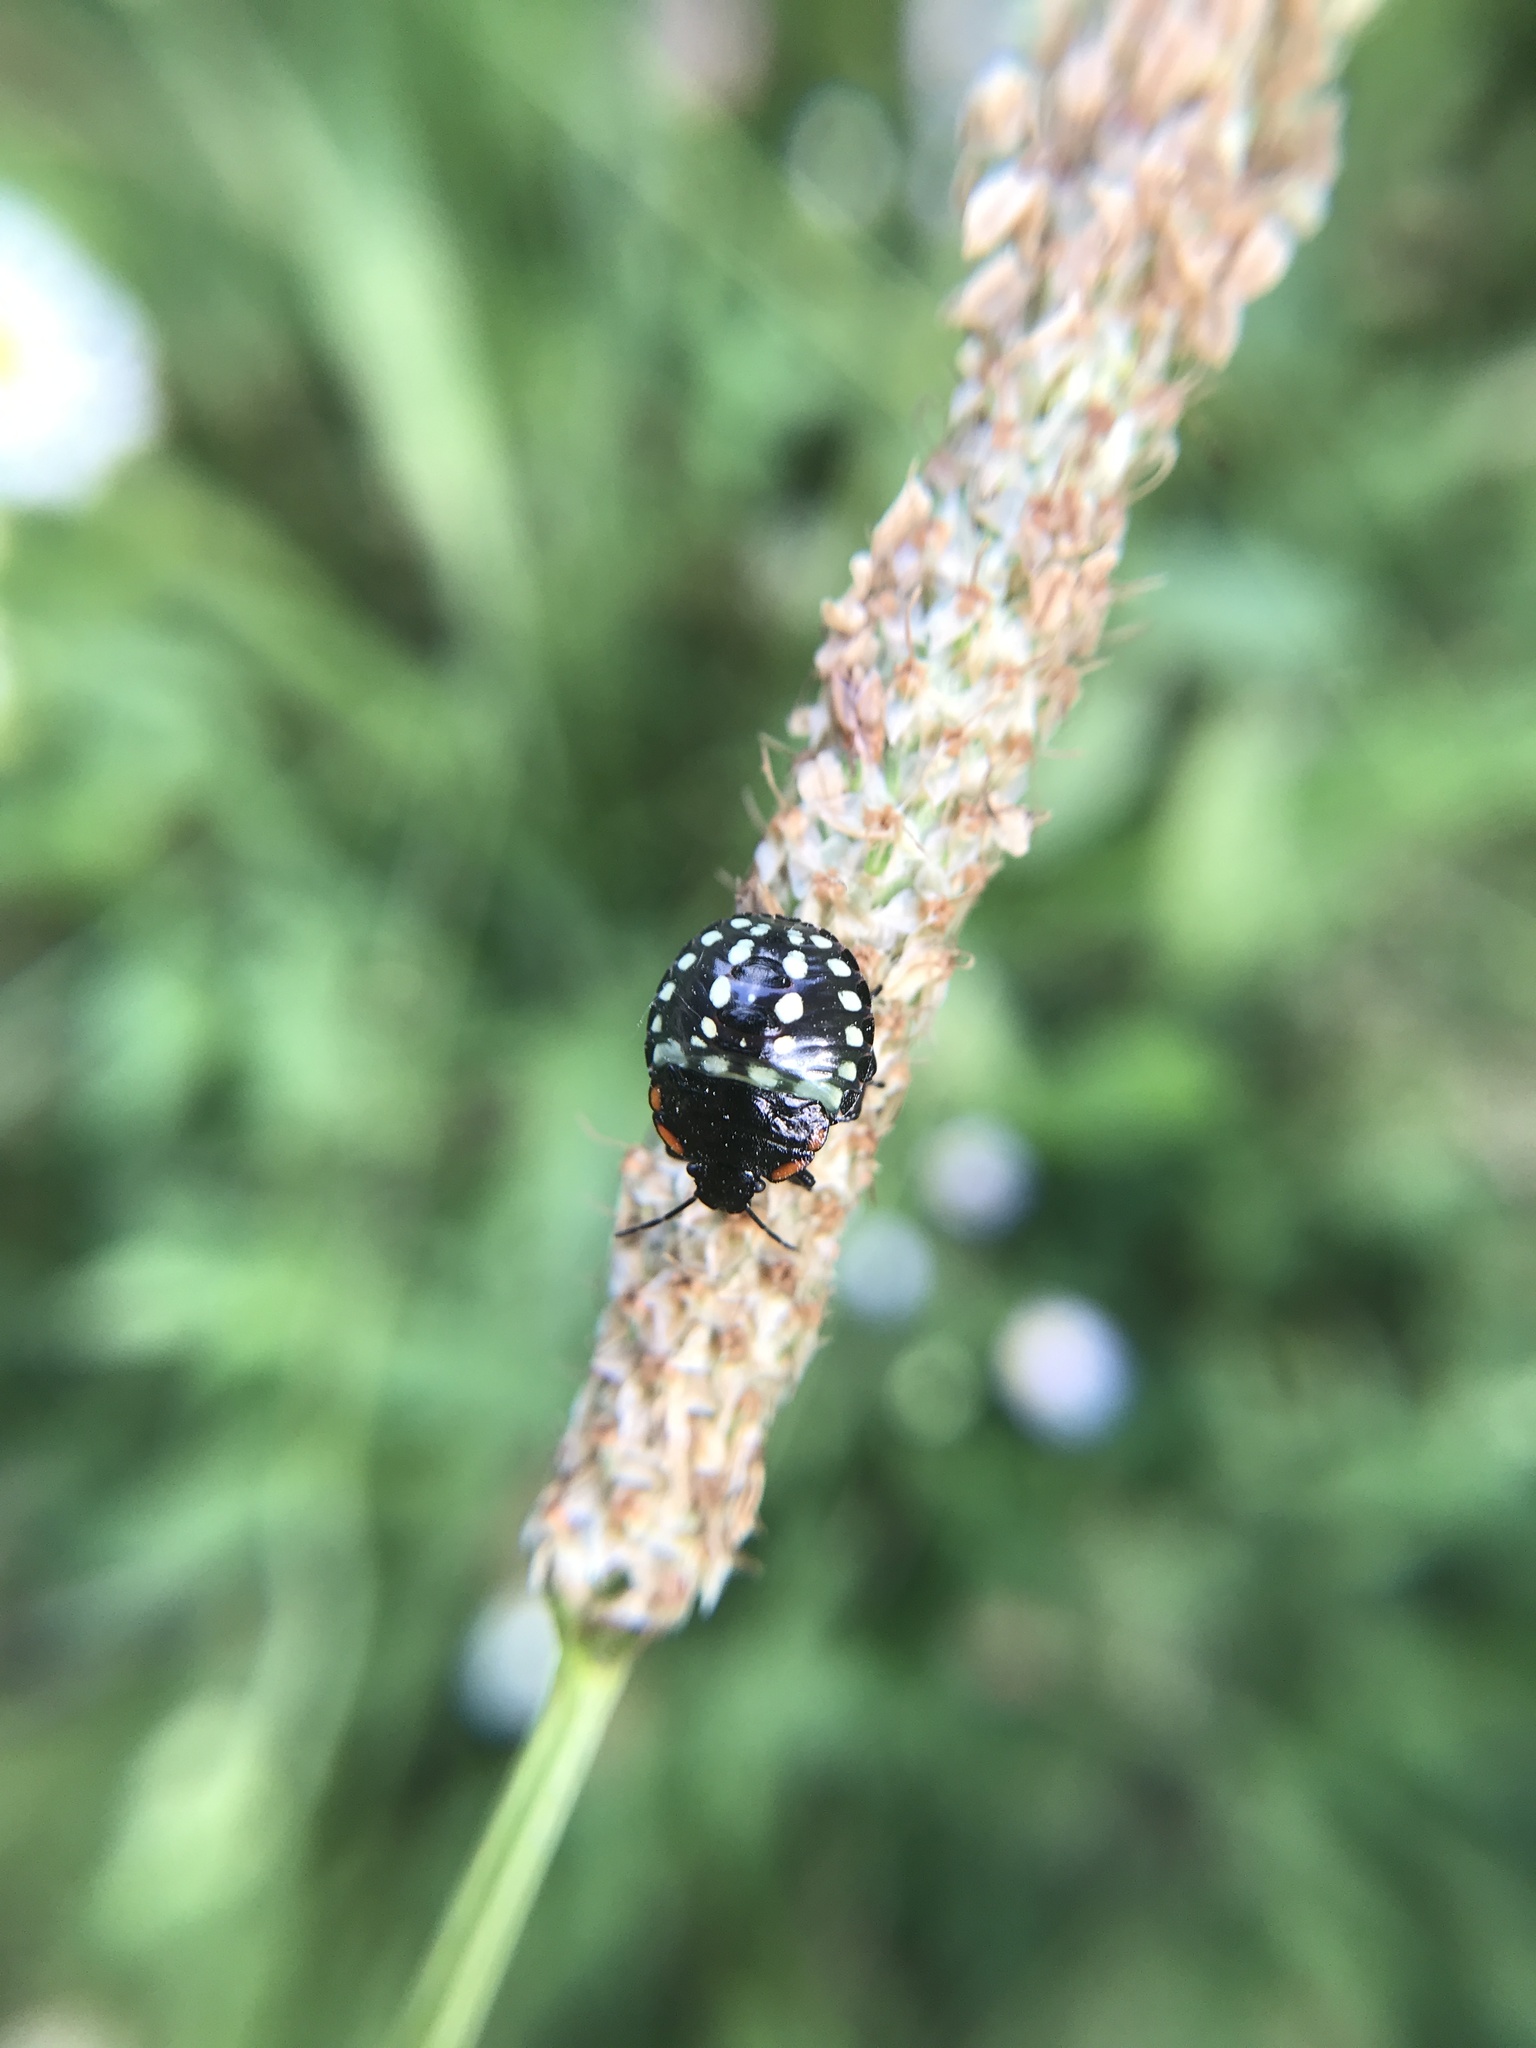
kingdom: Animalia
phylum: Arthropoda
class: Insecta
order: Hemiptera
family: Pentatomidae
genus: Nezara
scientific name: Nezara viridula
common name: Southern green stink bug
